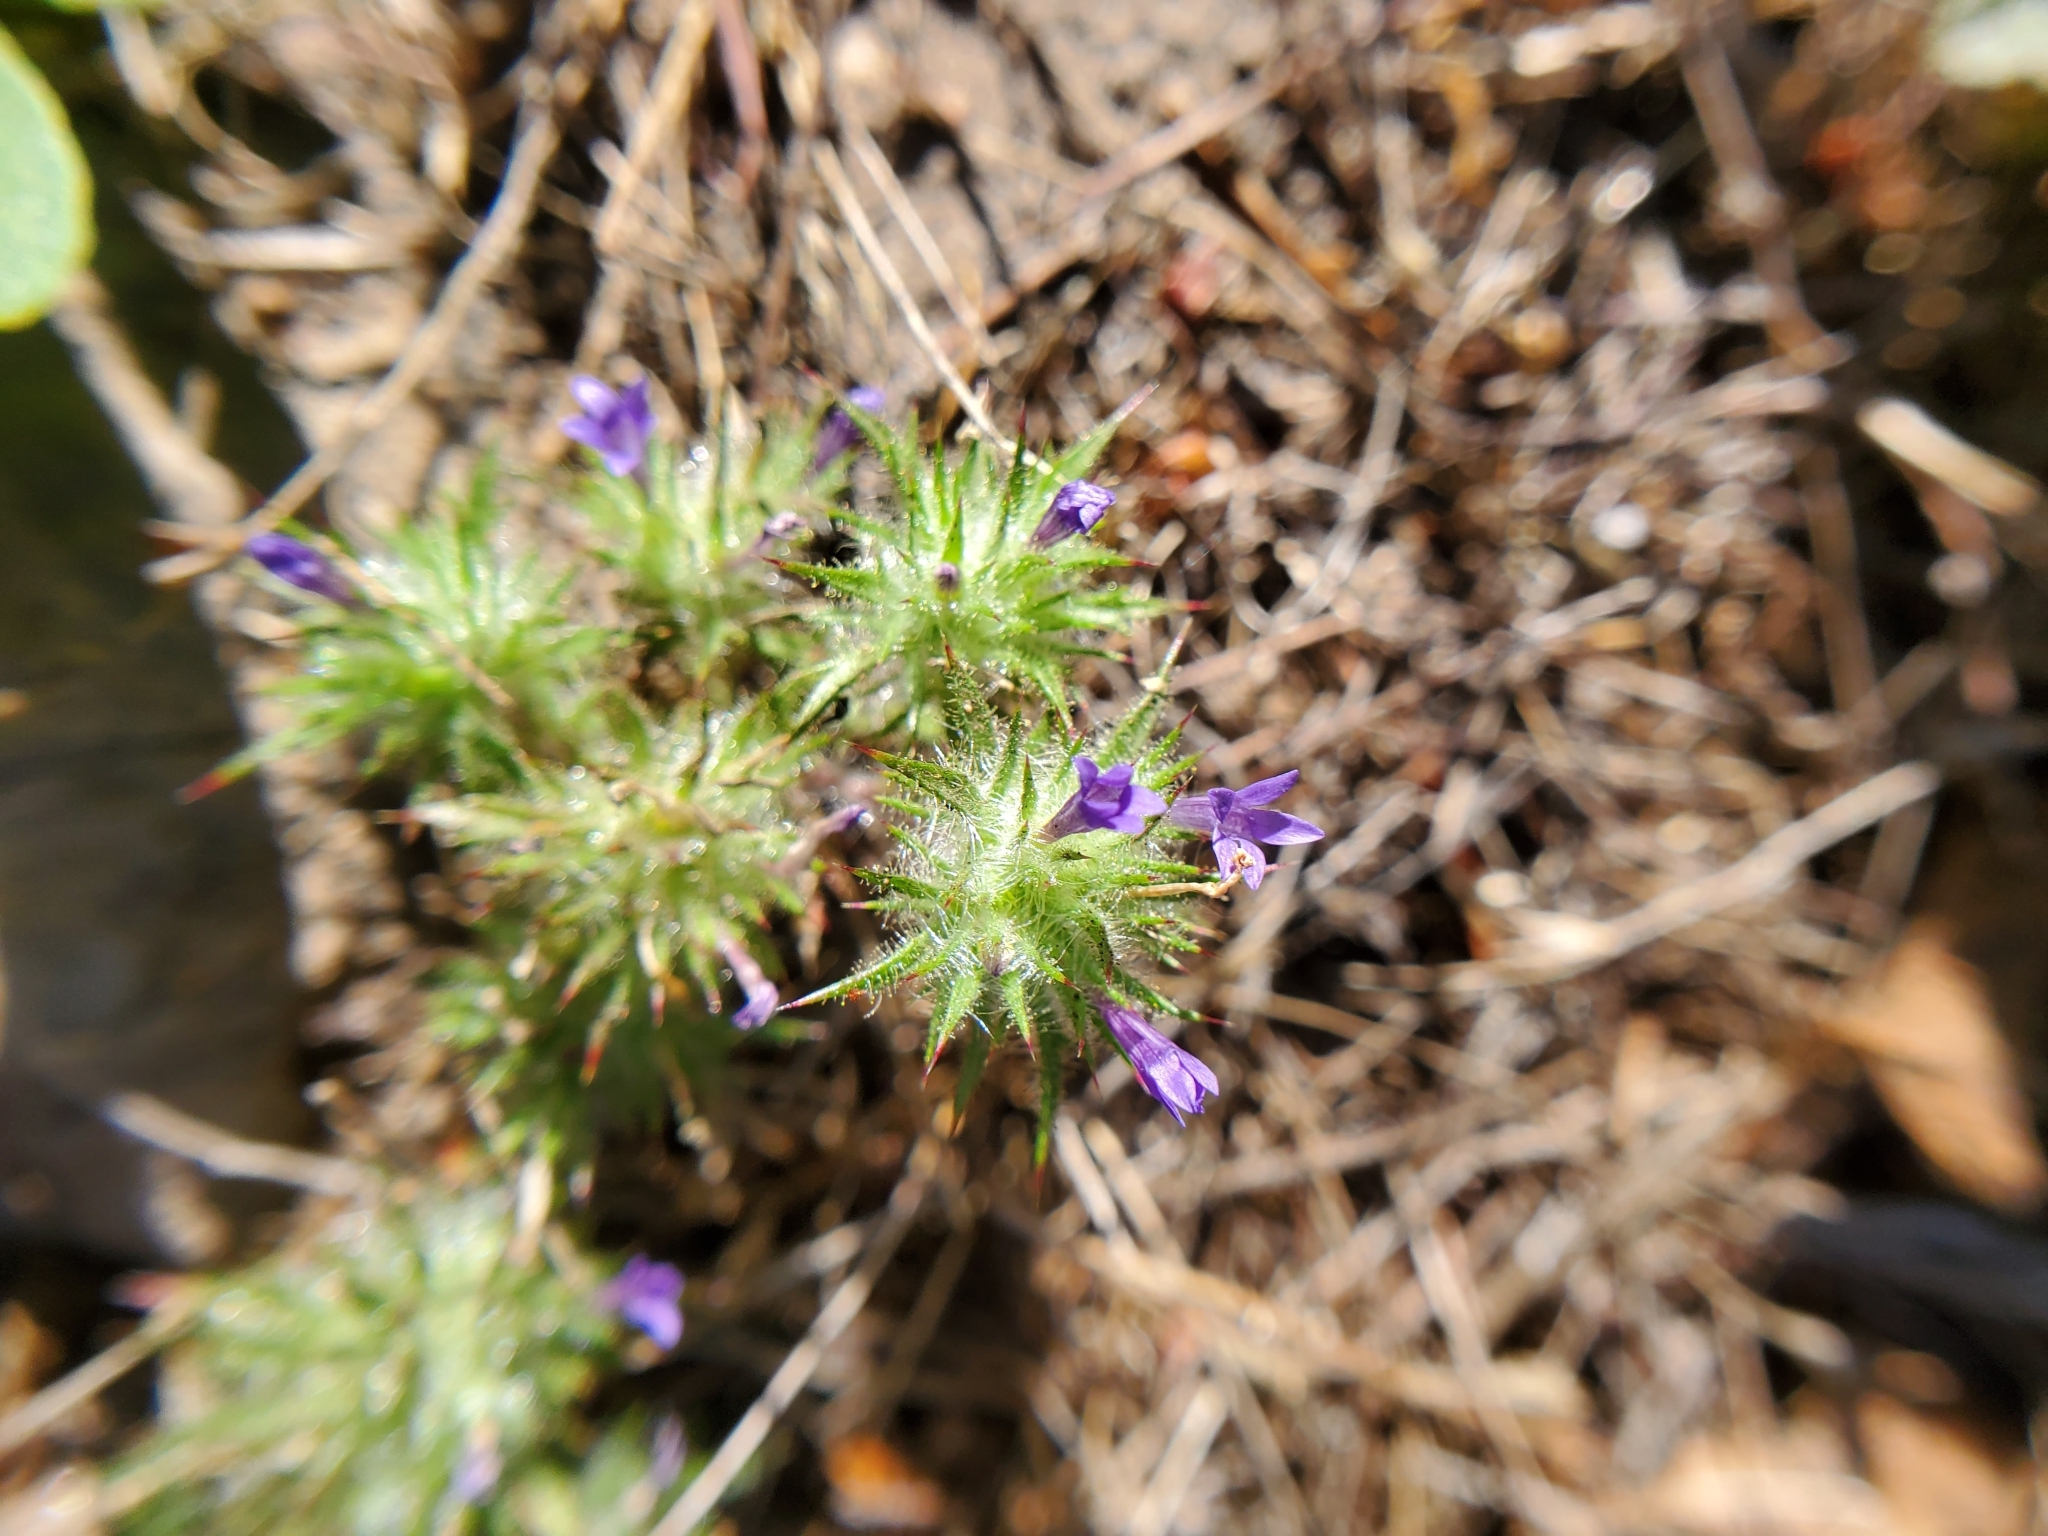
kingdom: Plantae
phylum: Tracheophyta
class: Magnoliopsida
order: Ericales
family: Polemoniaceae
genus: Navarretia
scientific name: Navarretia squarrosa
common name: Skunkweed
